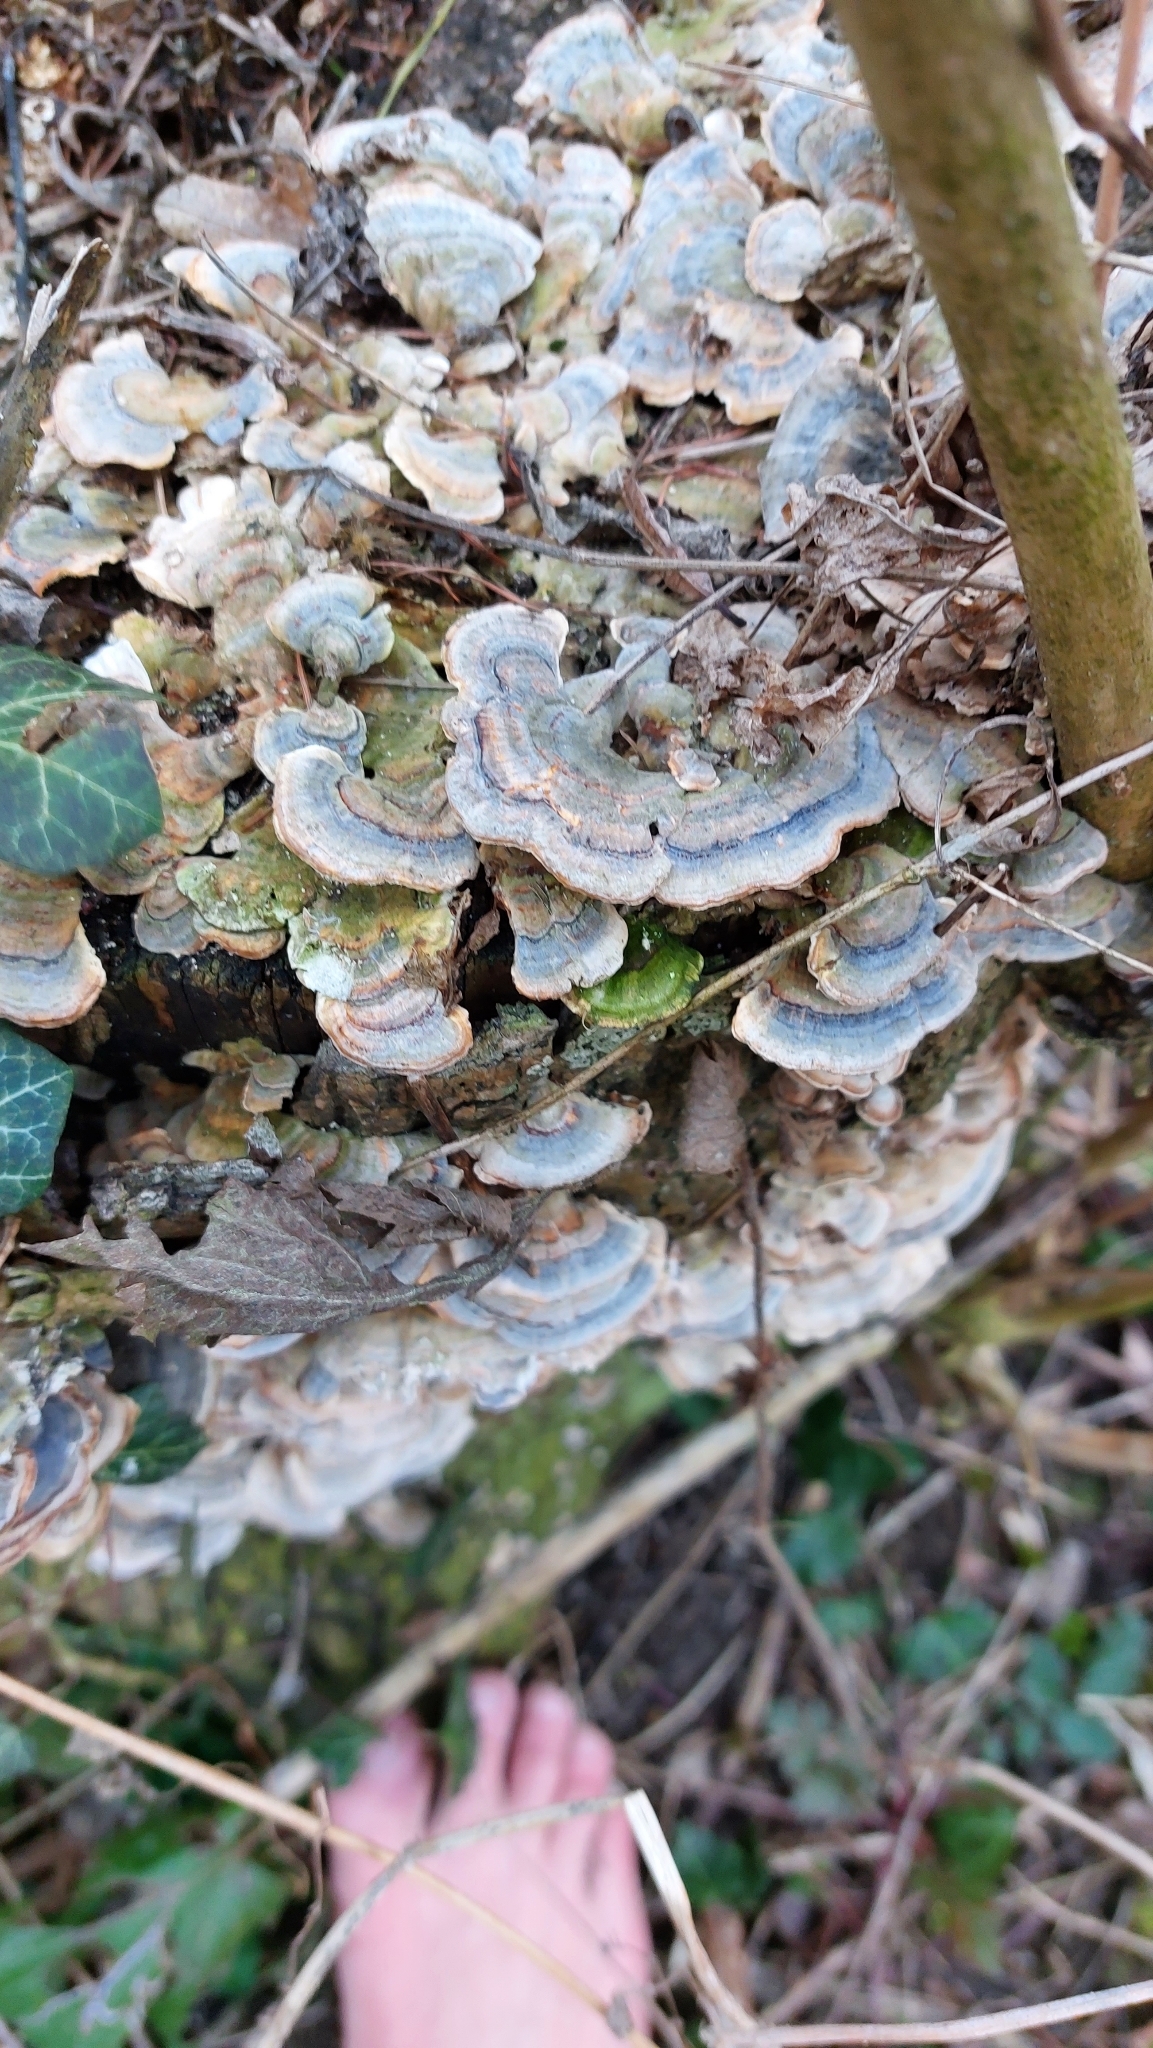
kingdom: Fungi
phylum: Basidiomycota
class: Agaricomycetes
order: Polyporales
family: Polyporaceae
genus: Trametes
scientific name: Trametes versicolor
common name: Turkeytail
